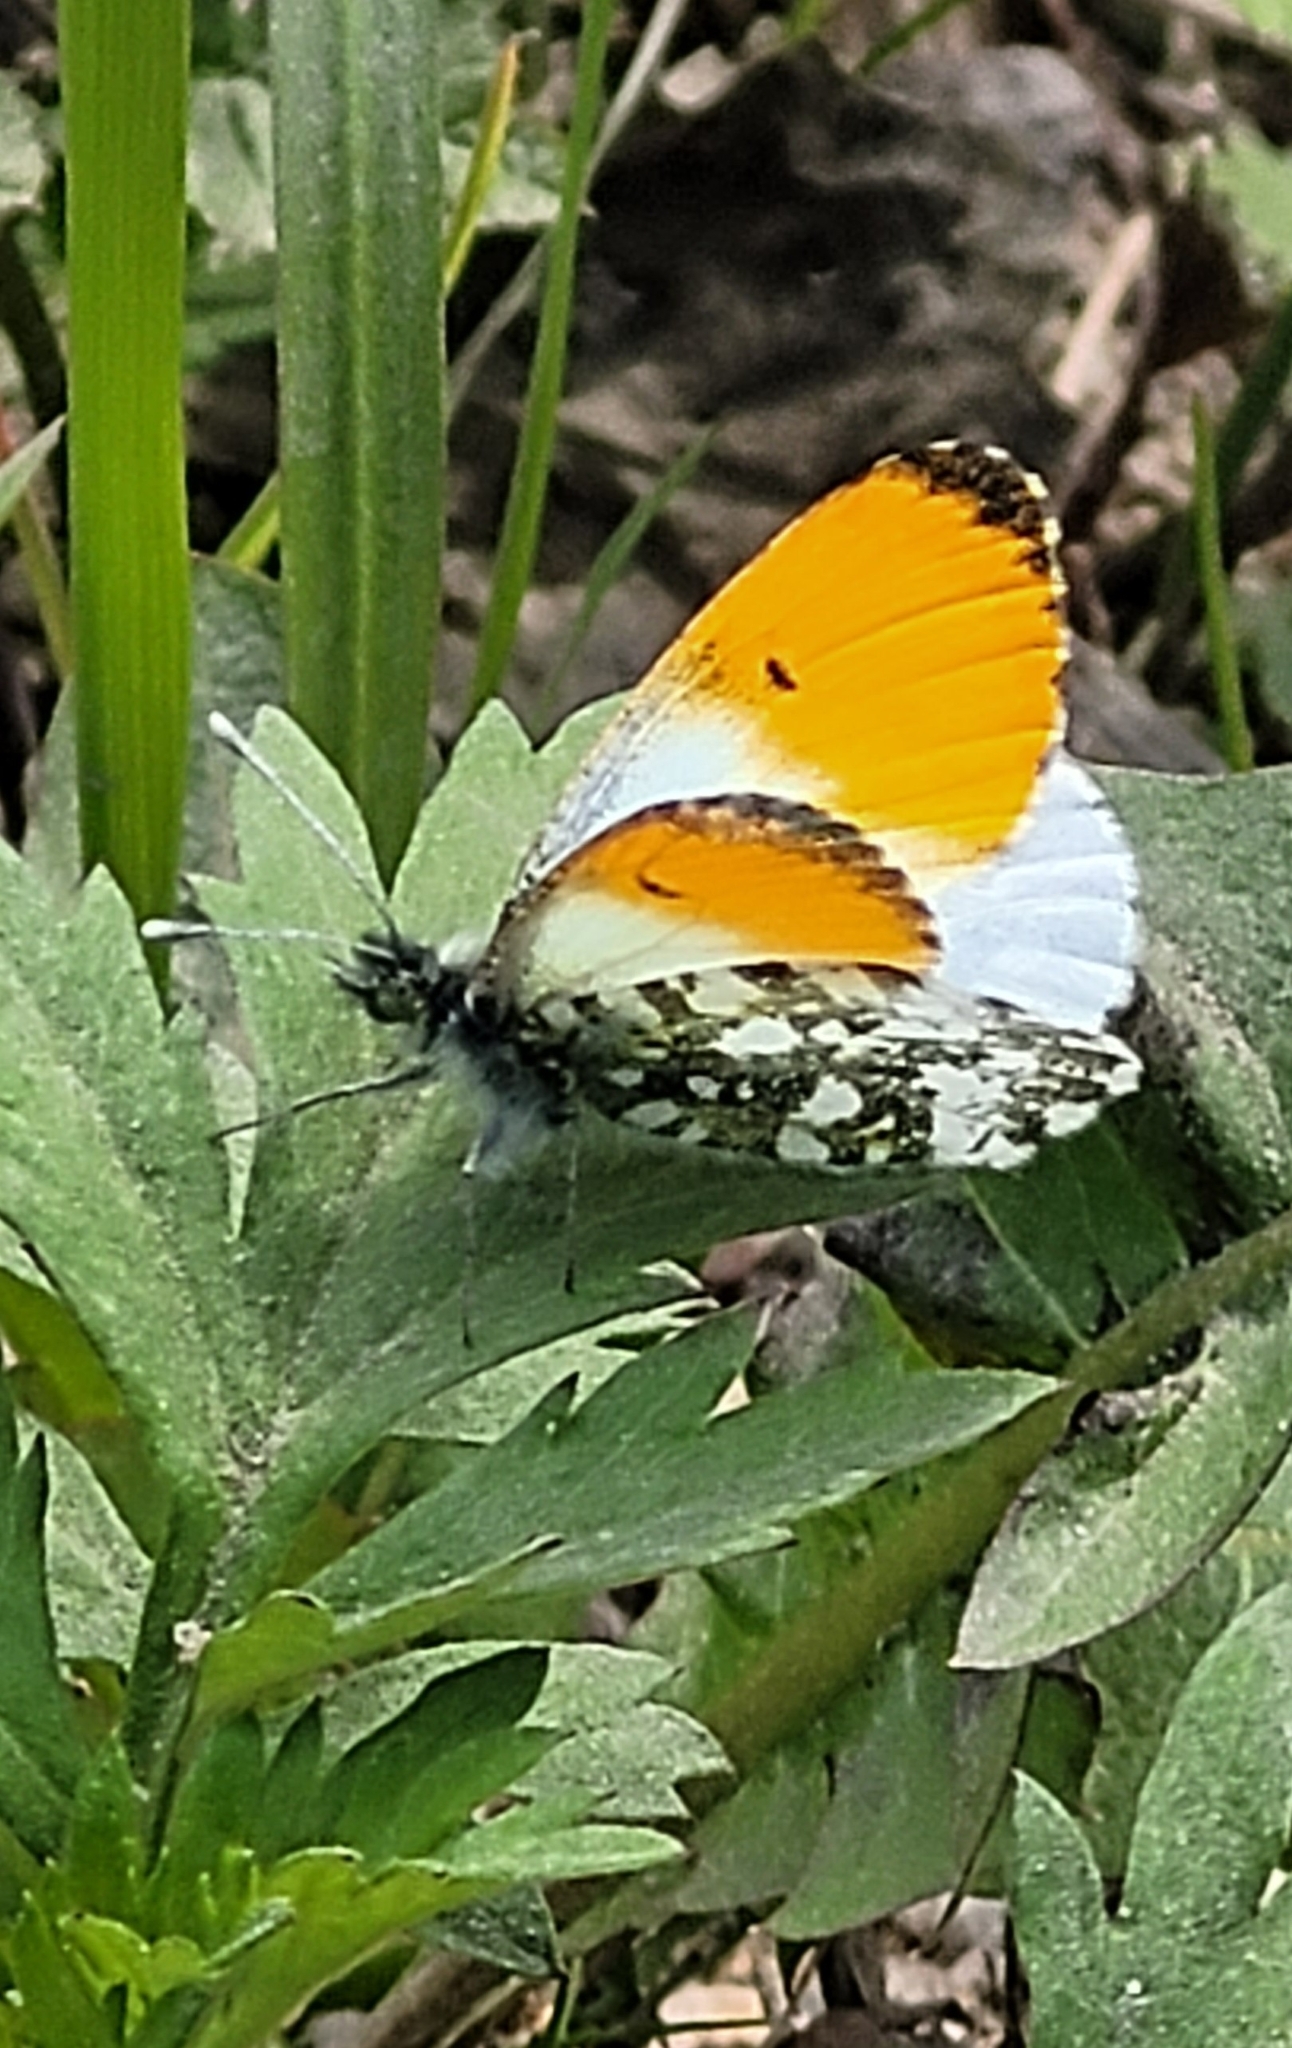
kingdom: Animalia
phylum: Arthropoda
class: Insecta
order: Lepidoptera
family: Pieridae
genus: Anthocharis
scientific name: Anthocharis cardamines
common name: Orange-tip
